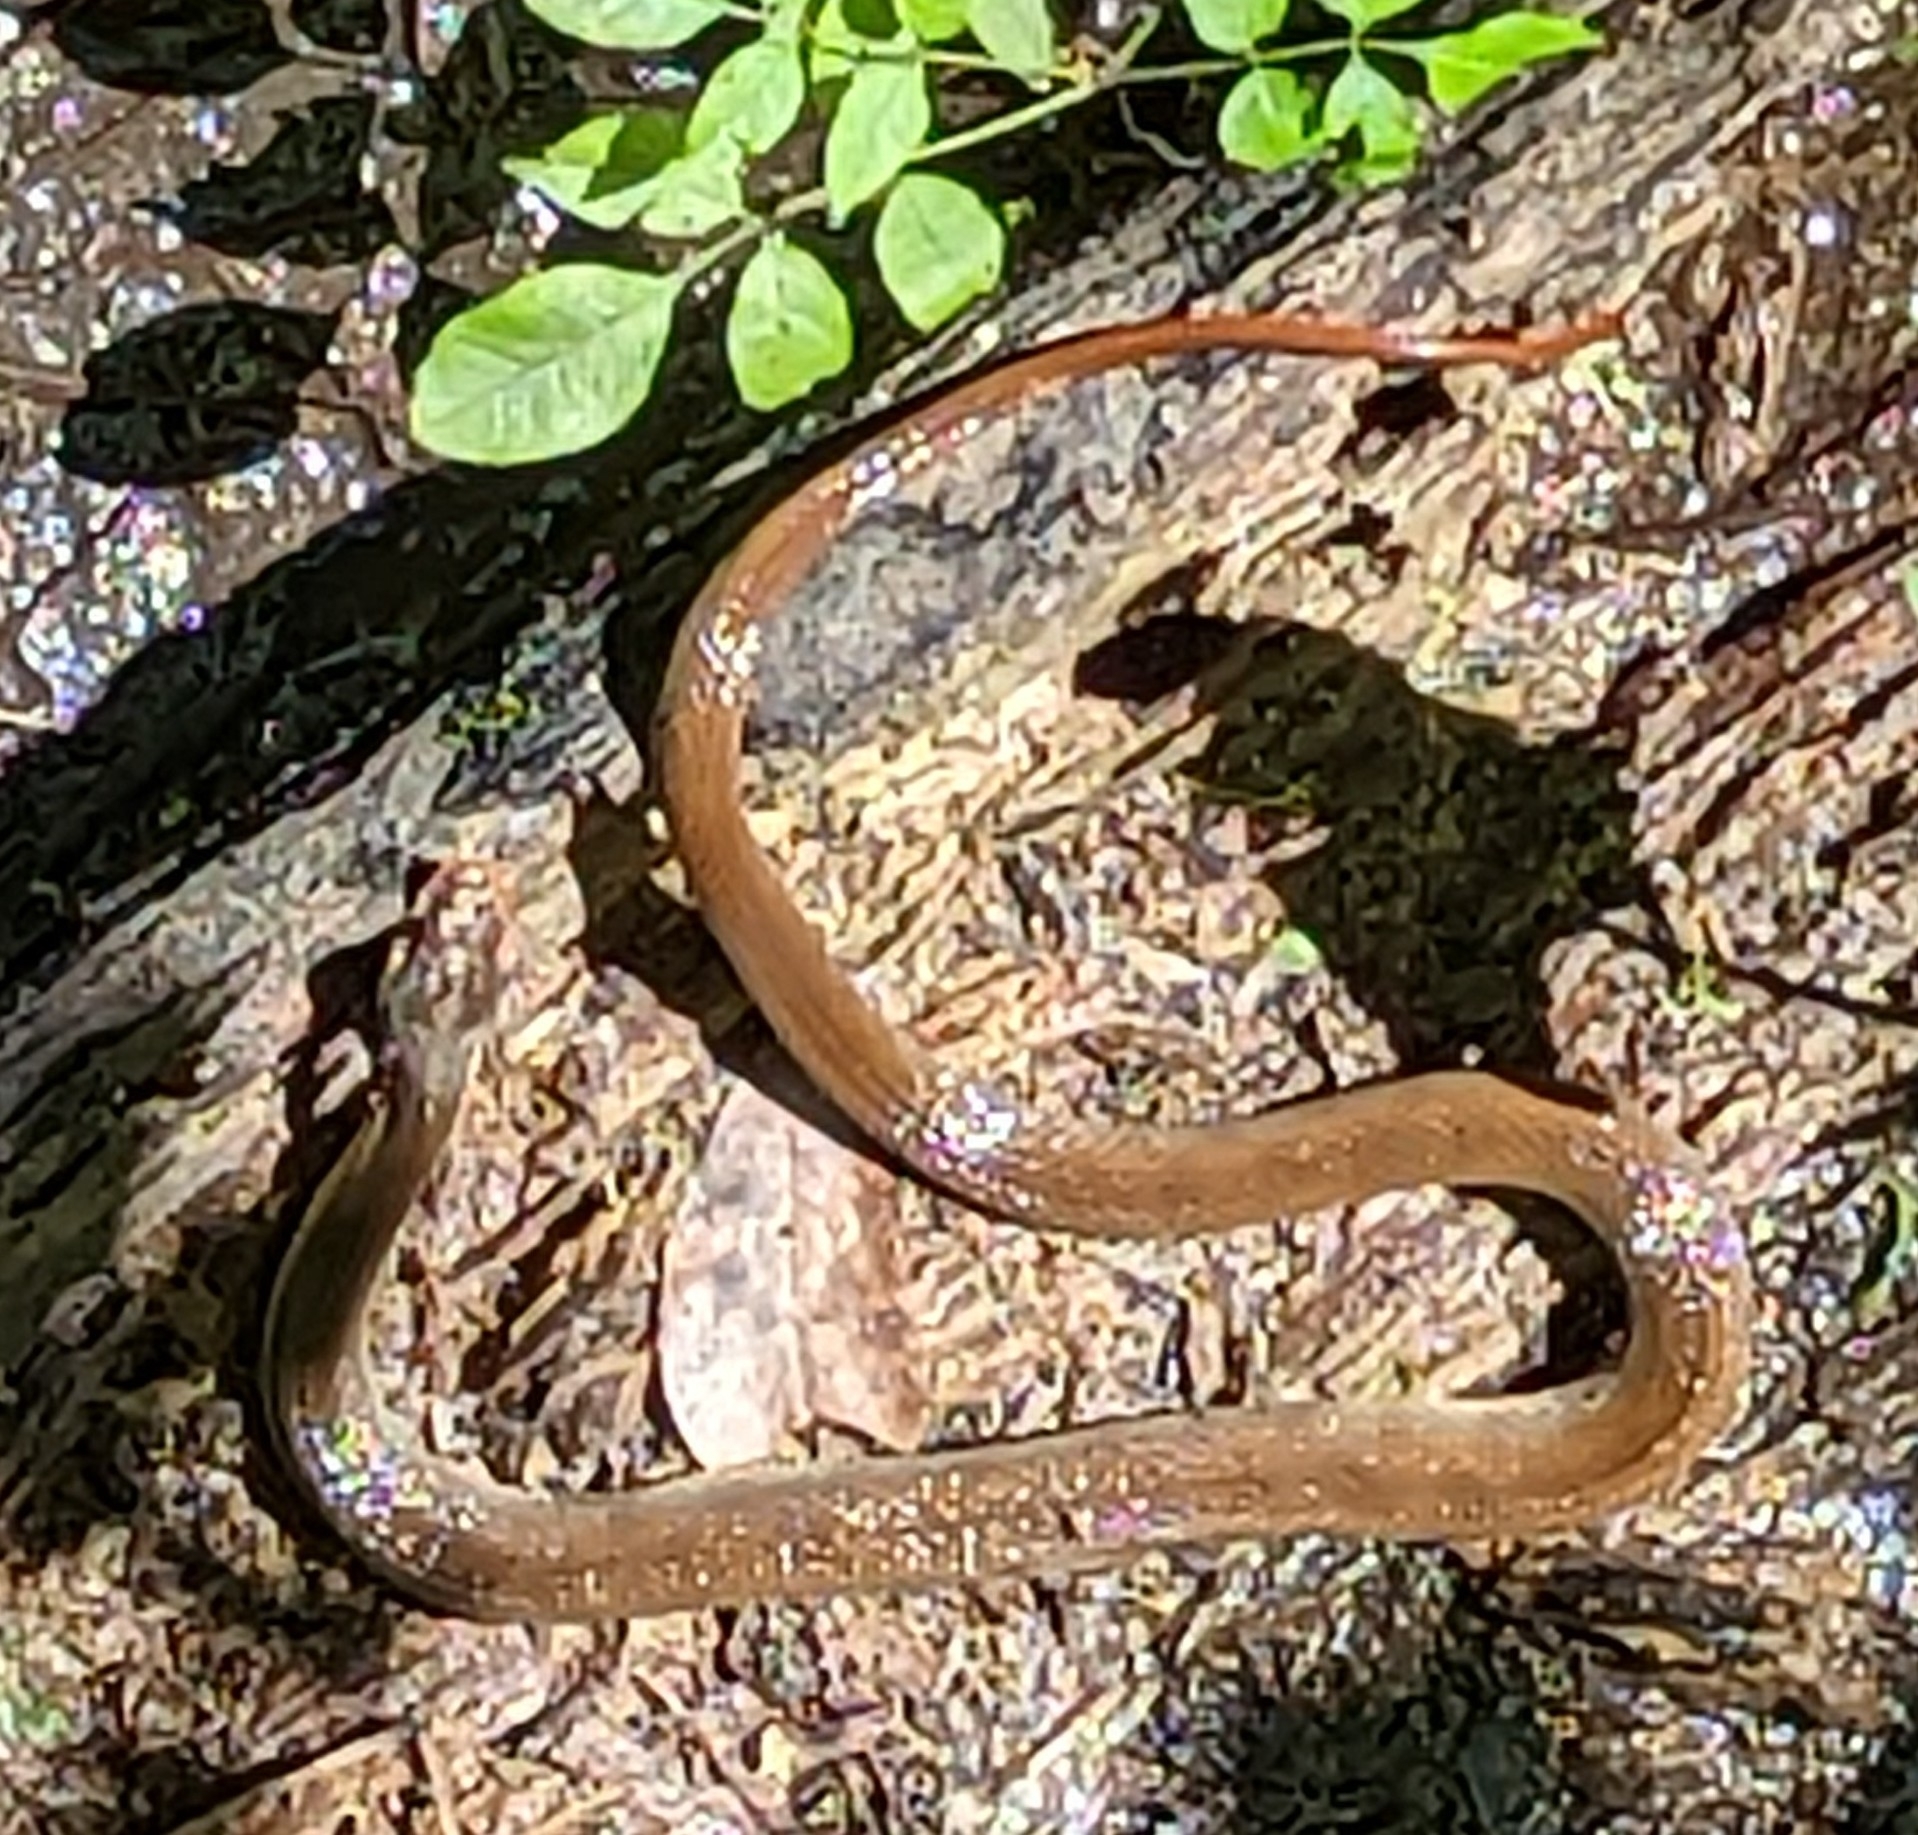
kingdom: Animalia
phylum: Chordata
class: Squamata
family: Colubridae
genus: Nerodia
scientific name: Nerodia erythrogaster
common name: Plainbelly water snake
